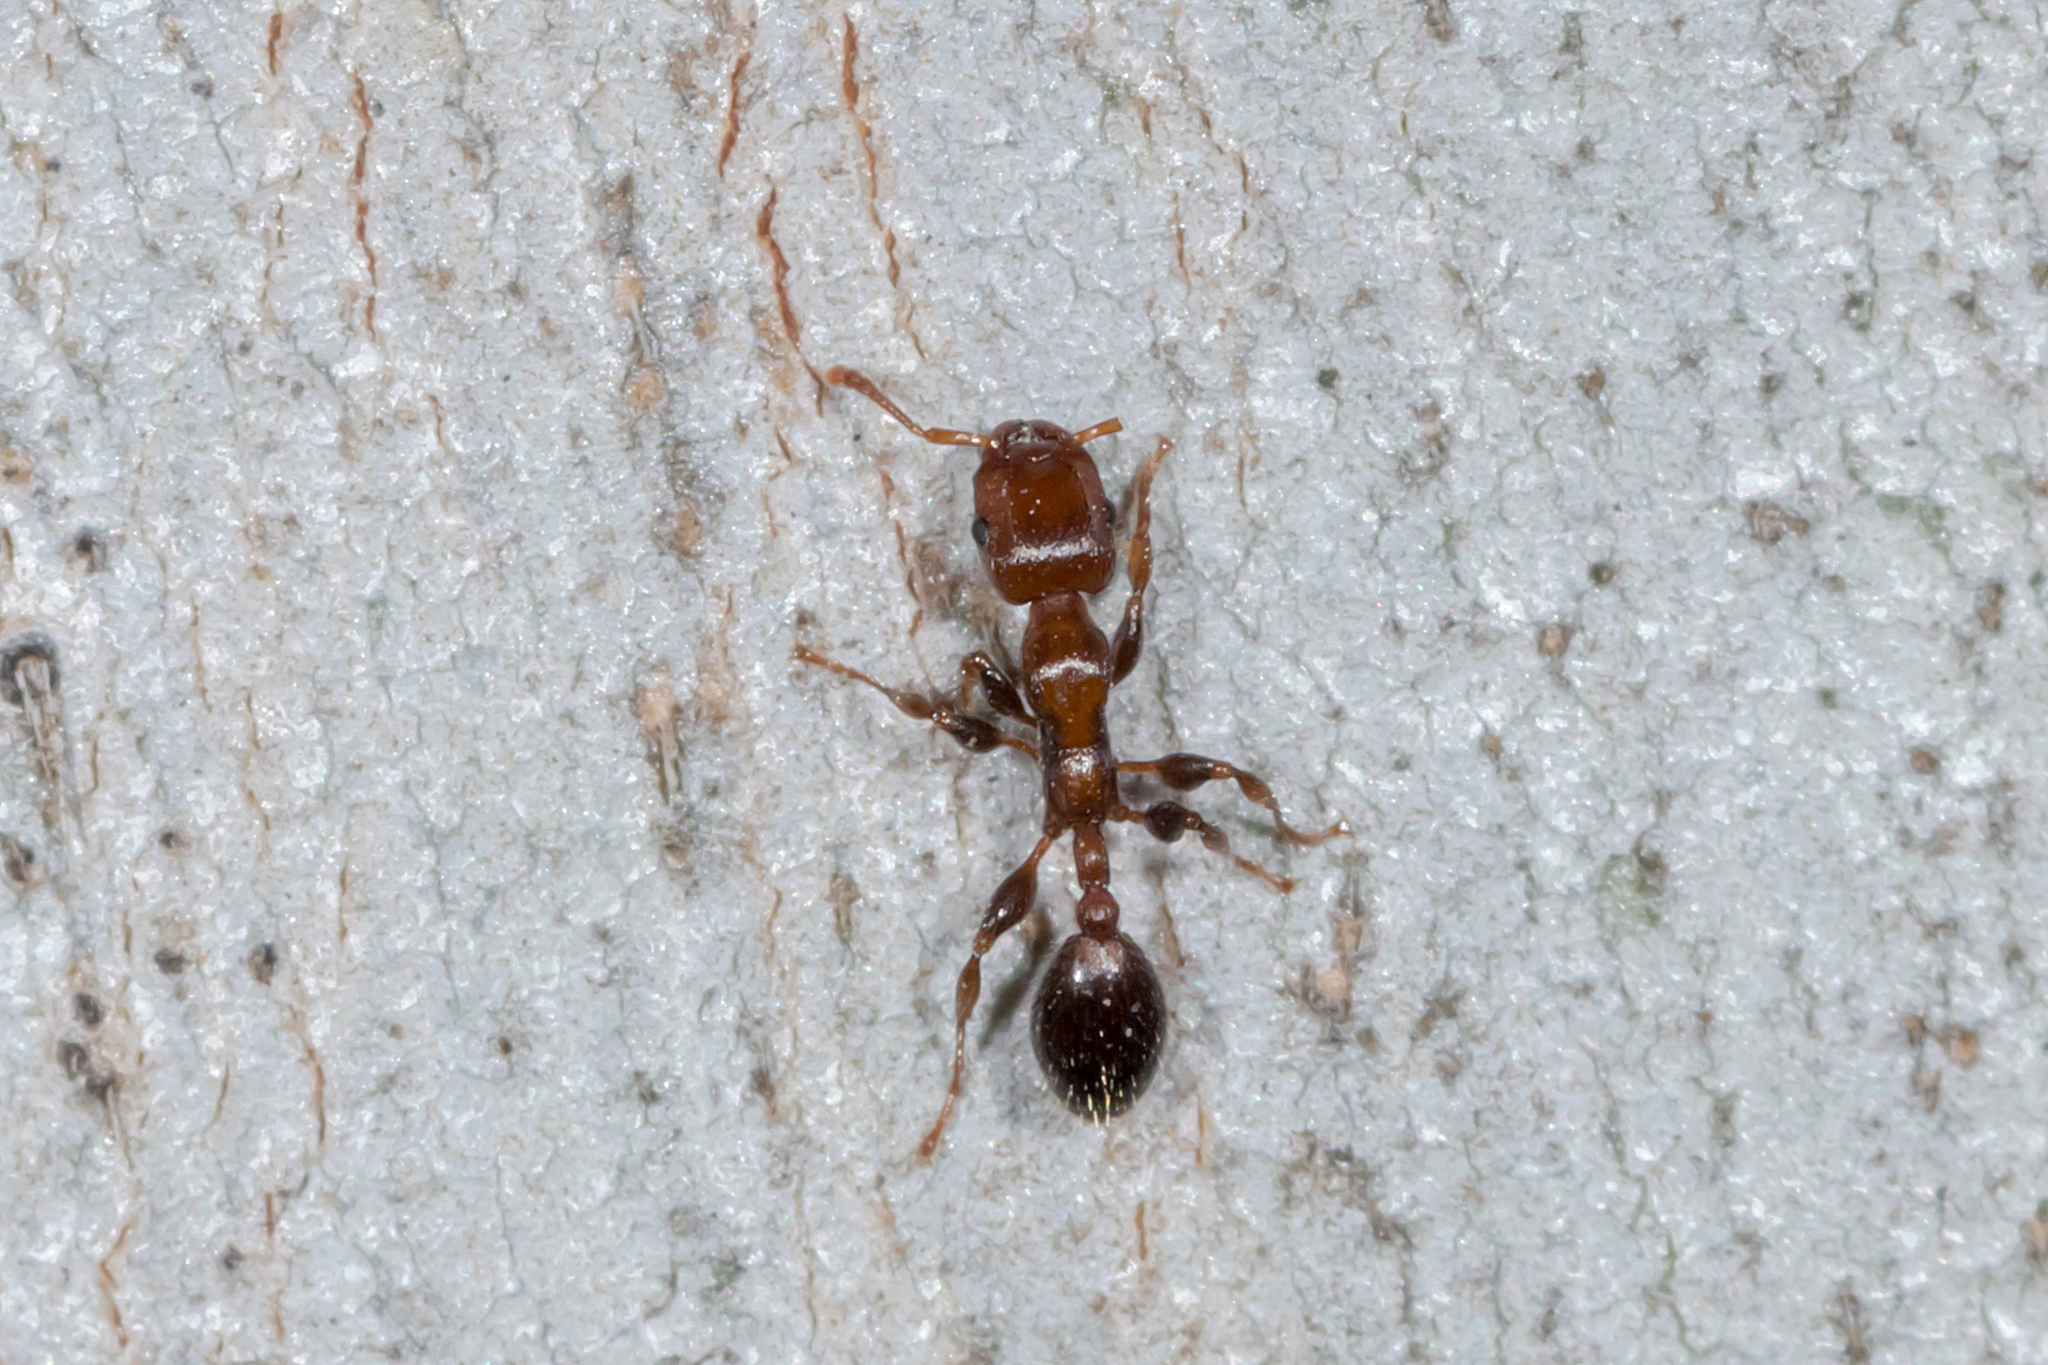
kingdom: Animalia
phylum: Arthropoda
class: Insecta
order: Hymenoptera
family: Formicidae
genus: Podomyrma
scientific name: Podomyrma elongata
